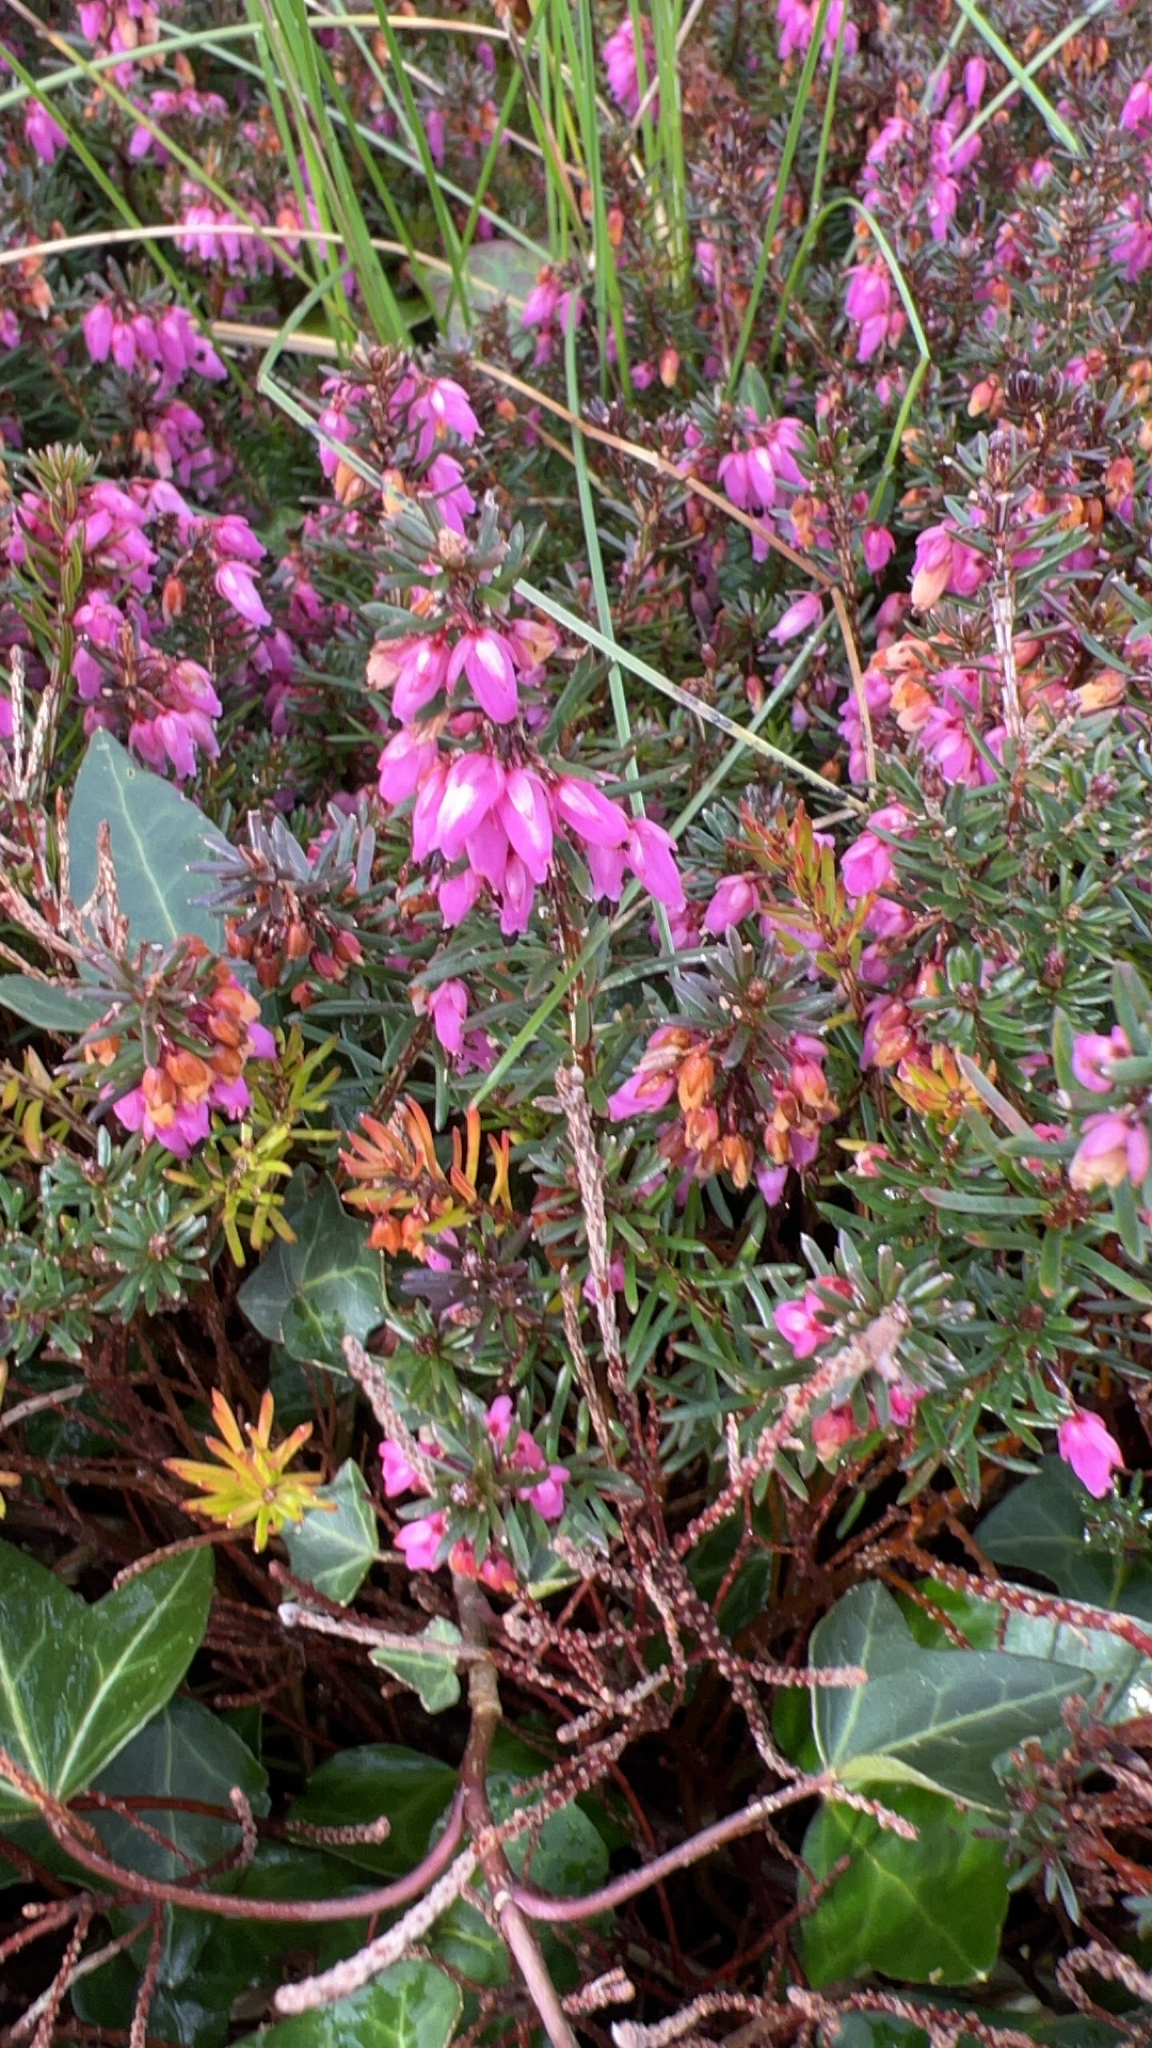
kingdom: Plantae
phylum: Tracheophyta
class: Magnoliopsida
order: Ericales
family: Ericaceae
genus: Erica
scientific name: Erica carnea
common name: Winter heath
